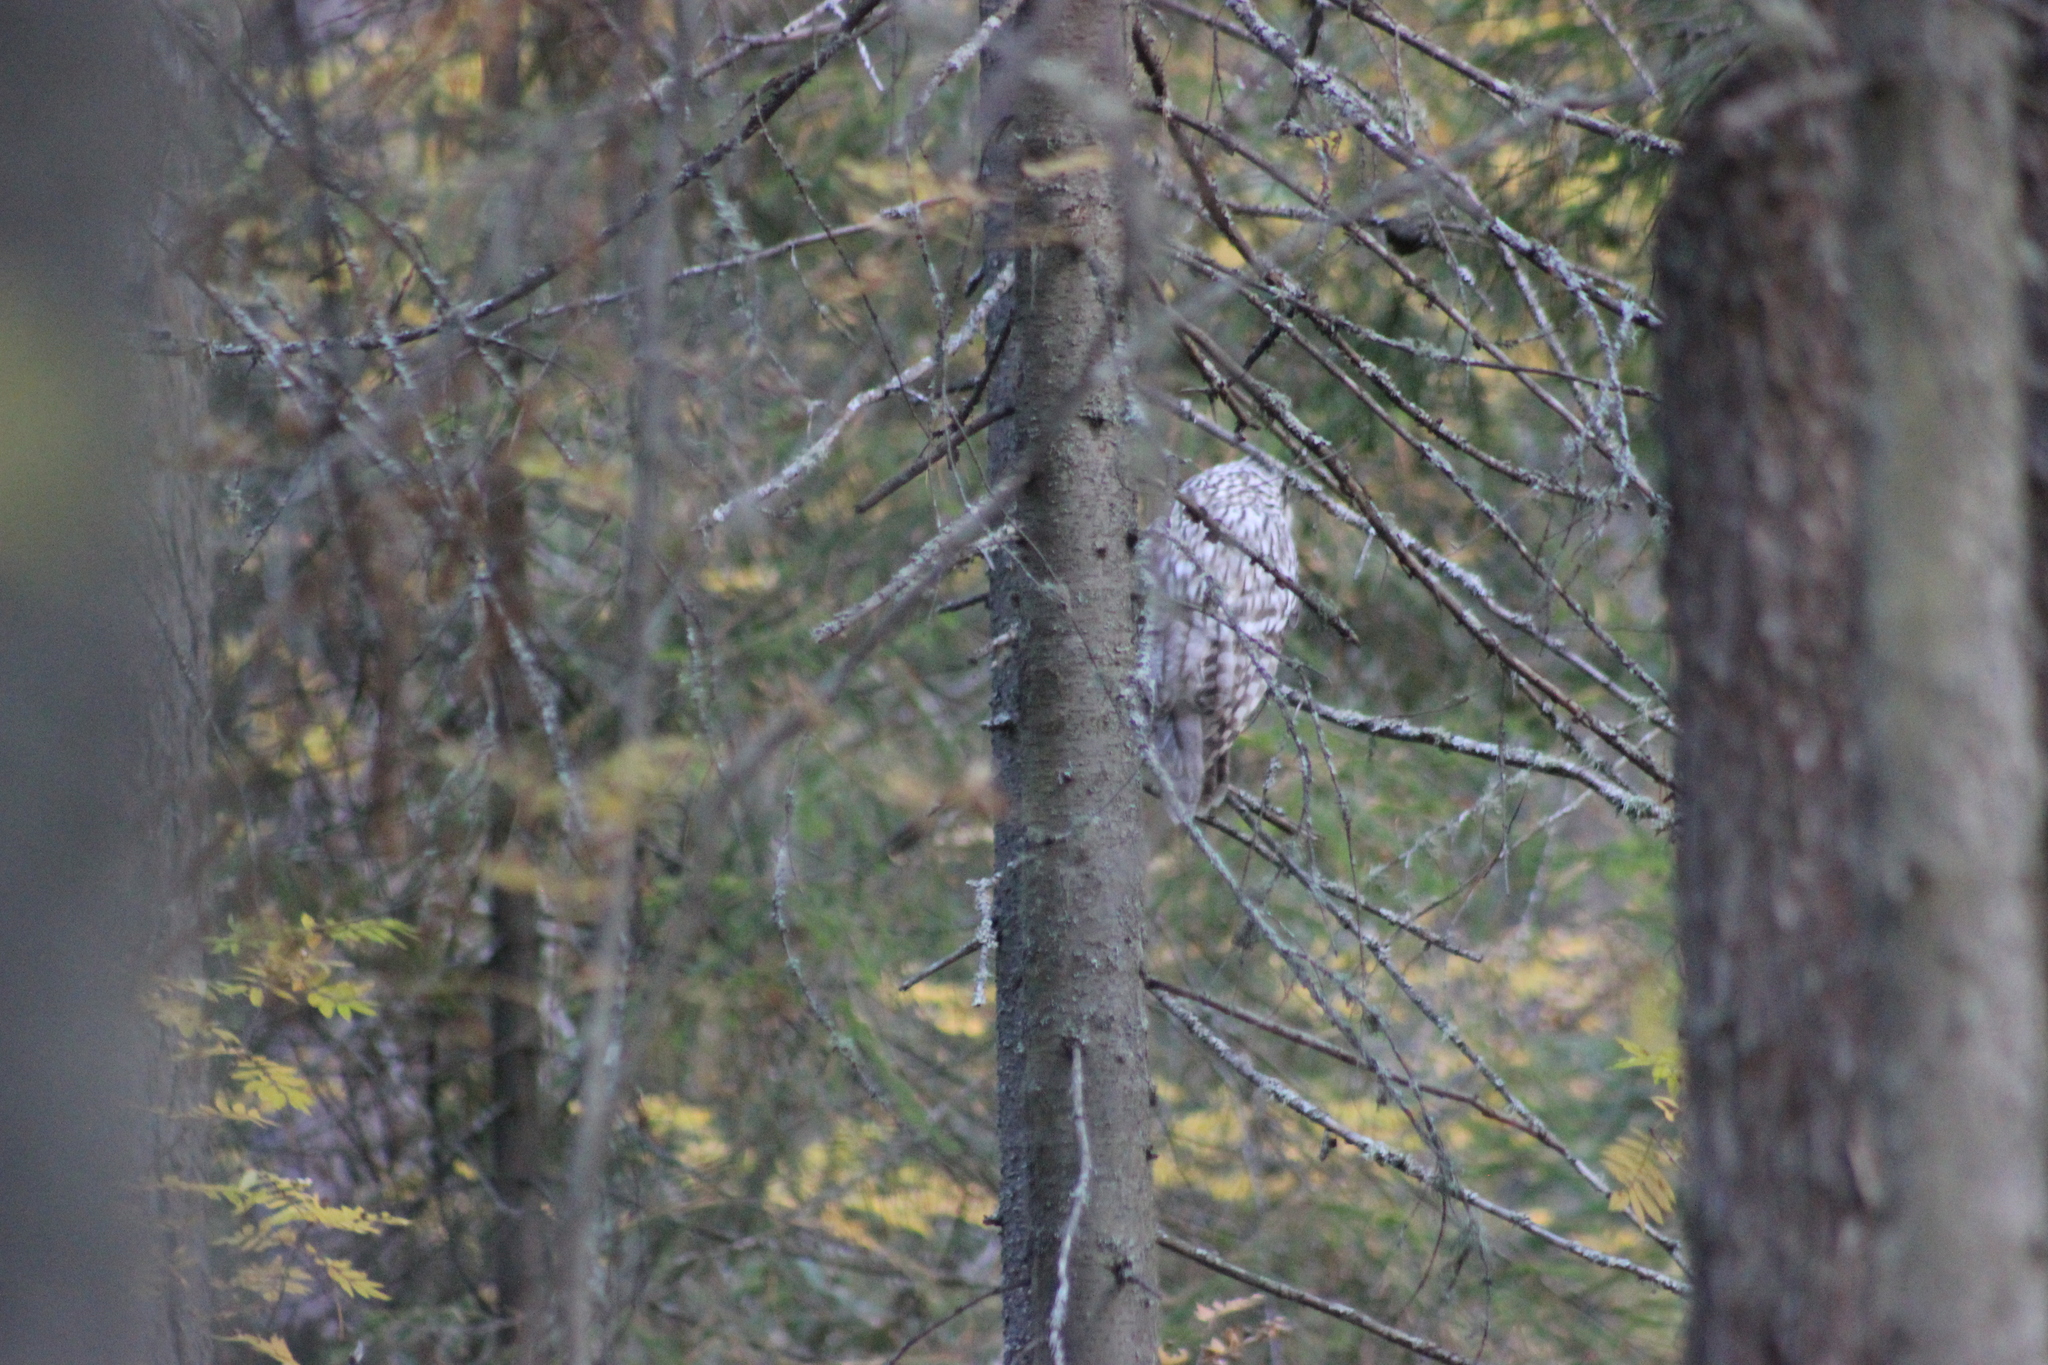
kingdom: Animalia
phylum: Chordata
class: Aves
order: Strigiformes
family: Strigidae
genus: Strix
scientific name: Strix uralensis
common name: Ural owl
